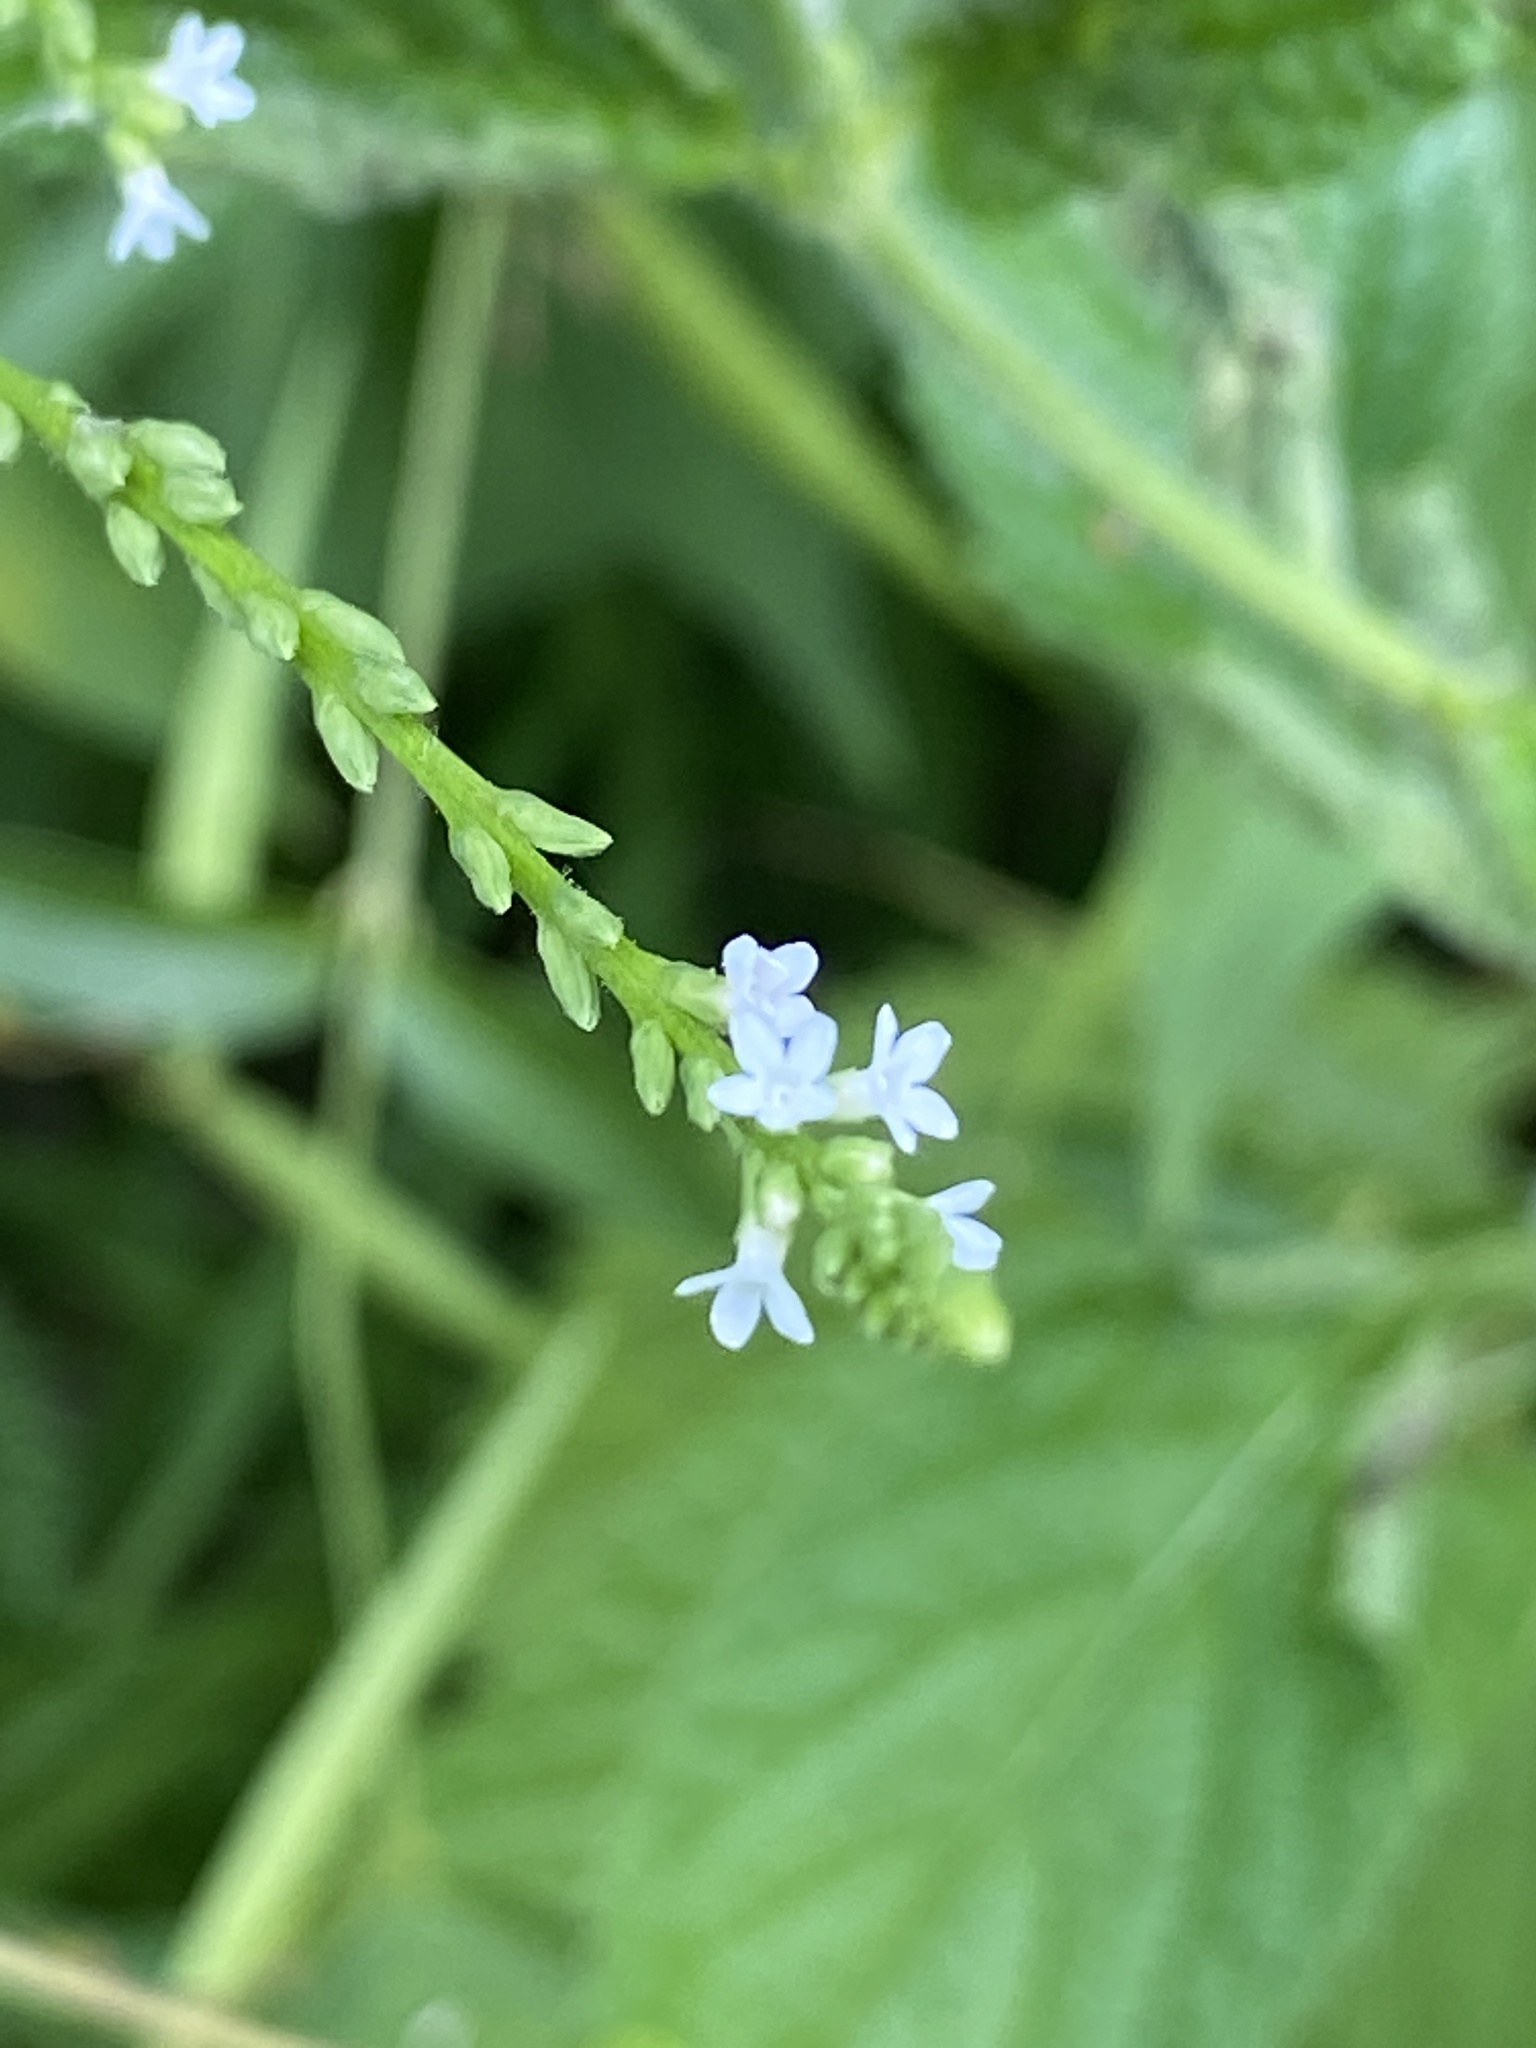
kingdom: Plantae
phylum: Tracheophyta
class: Magnoliopsida
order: Lamiales
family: Verbenaceae
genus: Verbena
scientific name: Verbena urticifolia
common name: Nettle-leaved vervain
